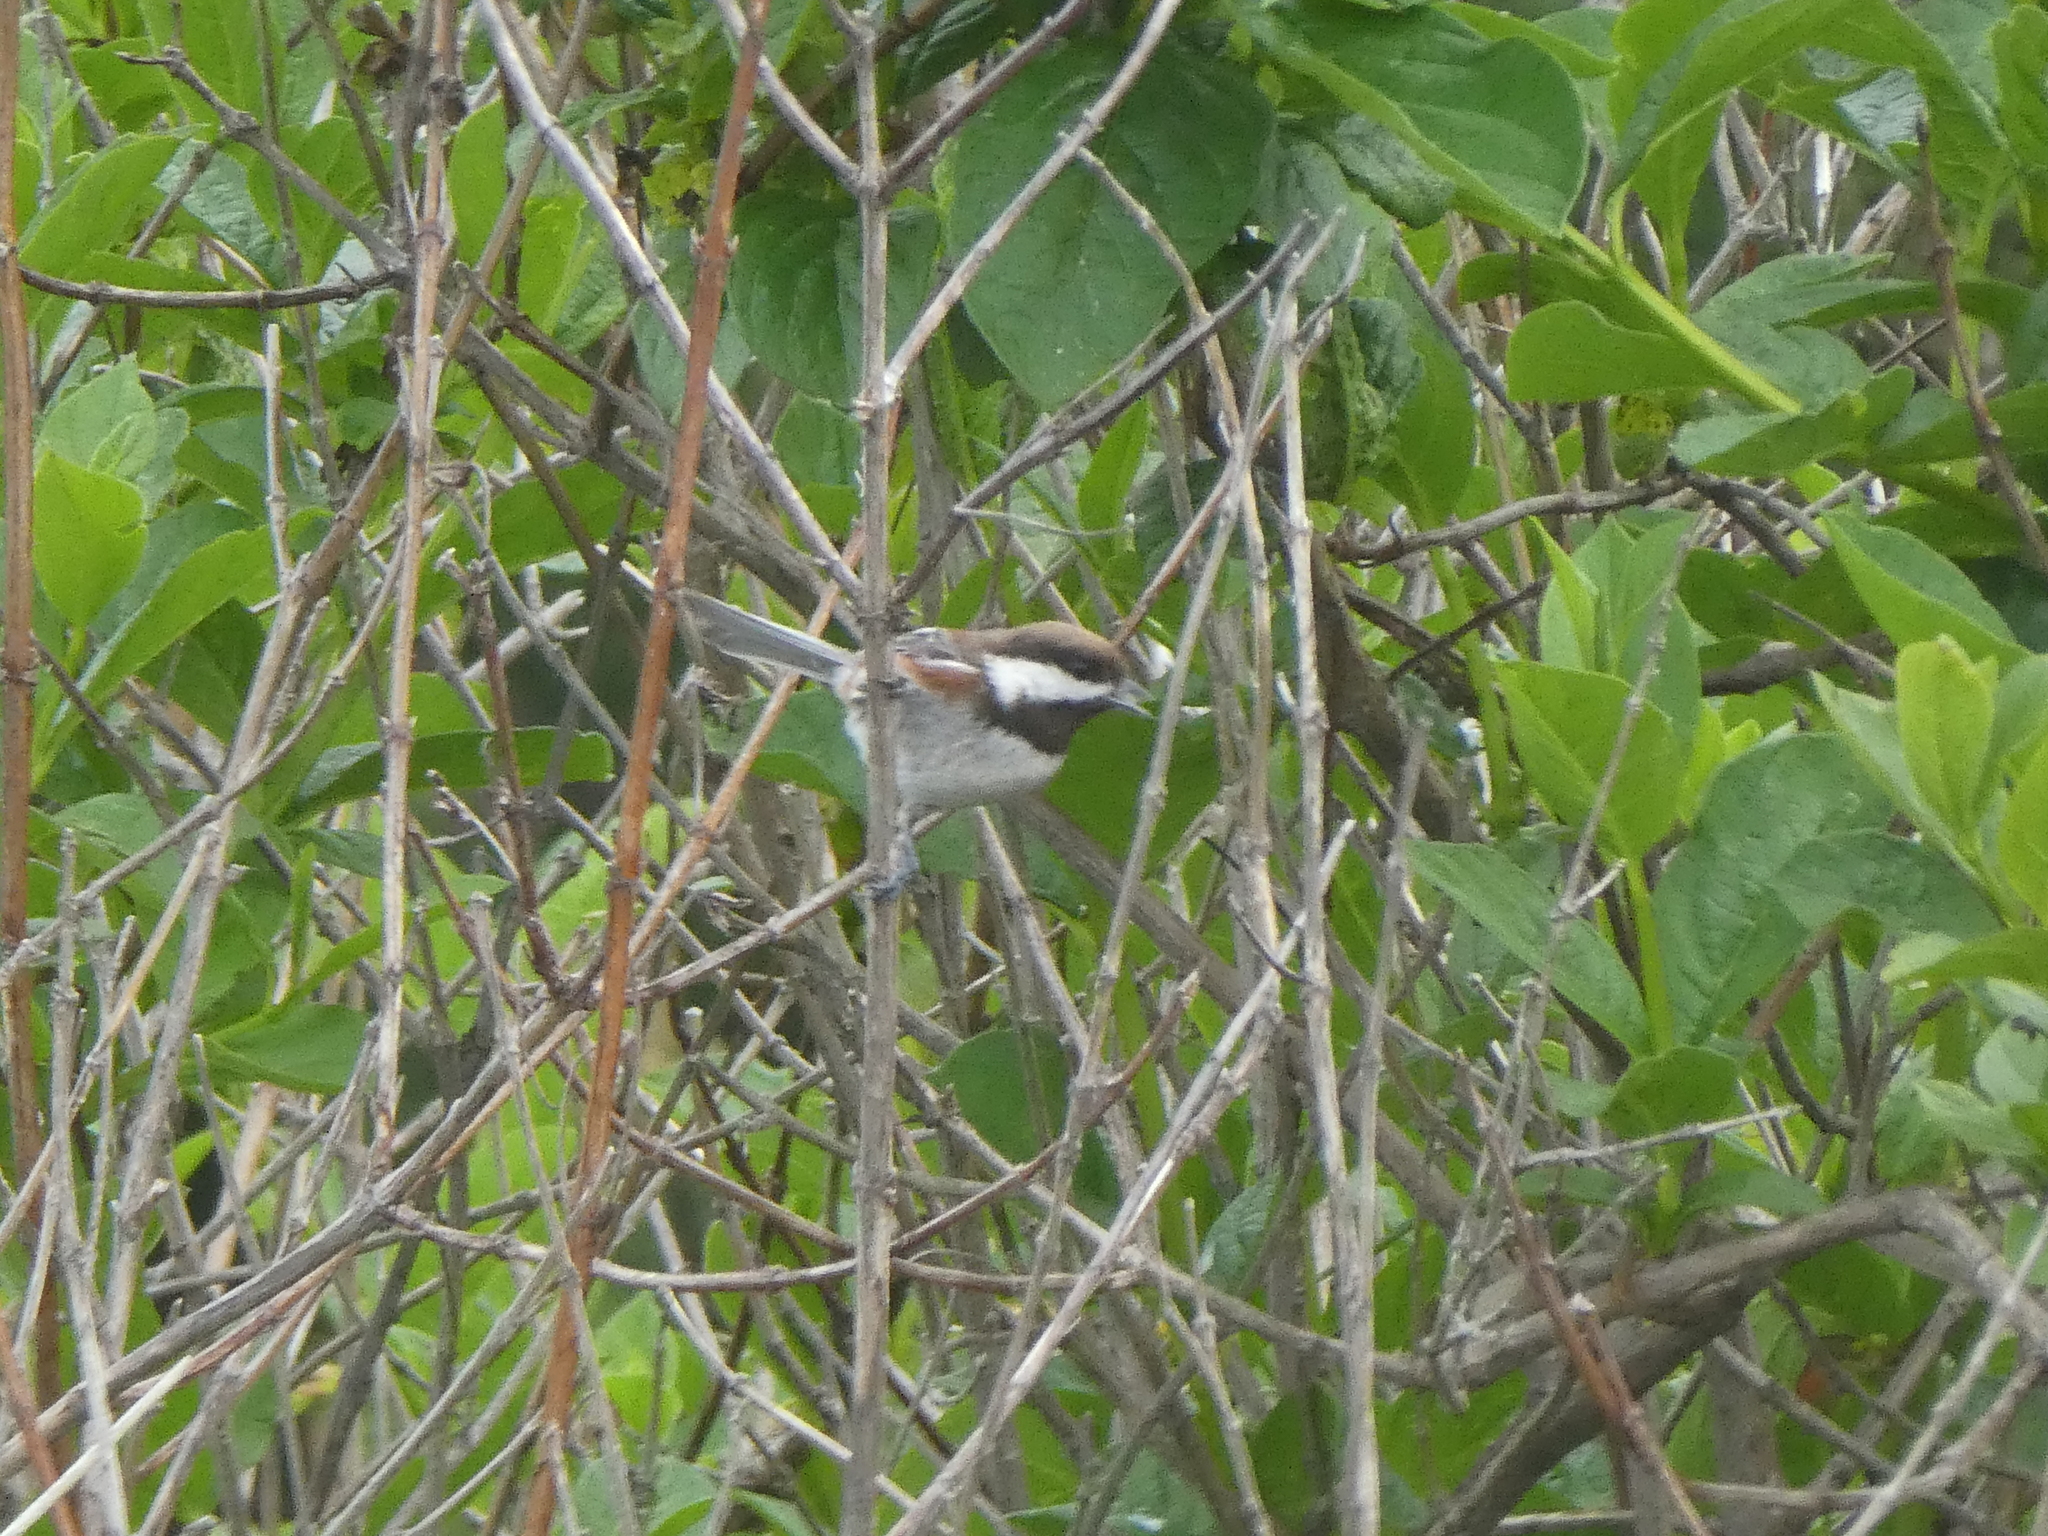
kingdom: Animalia
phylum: Chordata
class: Aves
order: Passeriformes
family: Paridae
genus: Poecile
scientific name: Poecile rufescens
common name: Chestnut-backed chickadee
